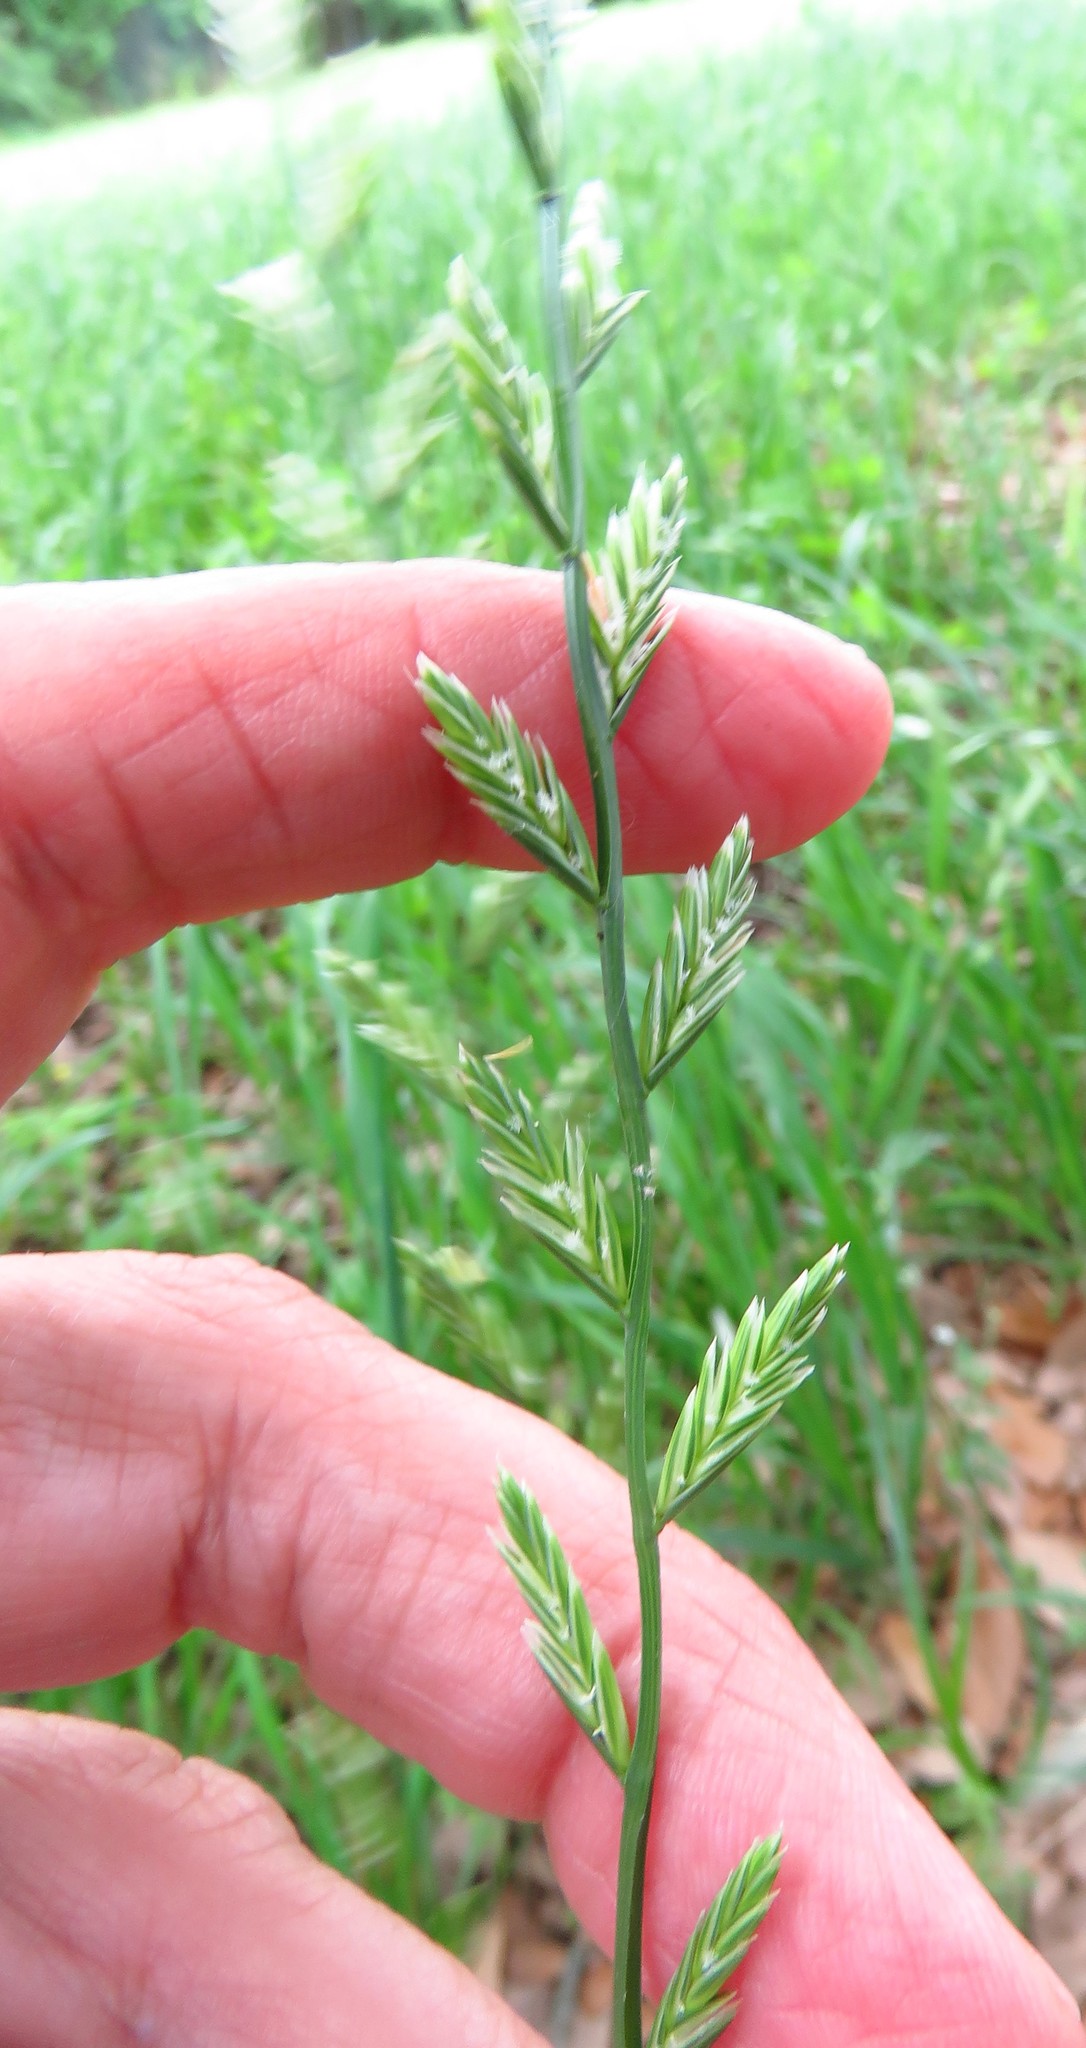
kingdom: Plantae
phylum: Tracheophyta
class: Liliopsida
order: Poales
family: Poaceae
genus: Lolium
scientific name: Lolium perenne
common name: Perennial ryegrass
